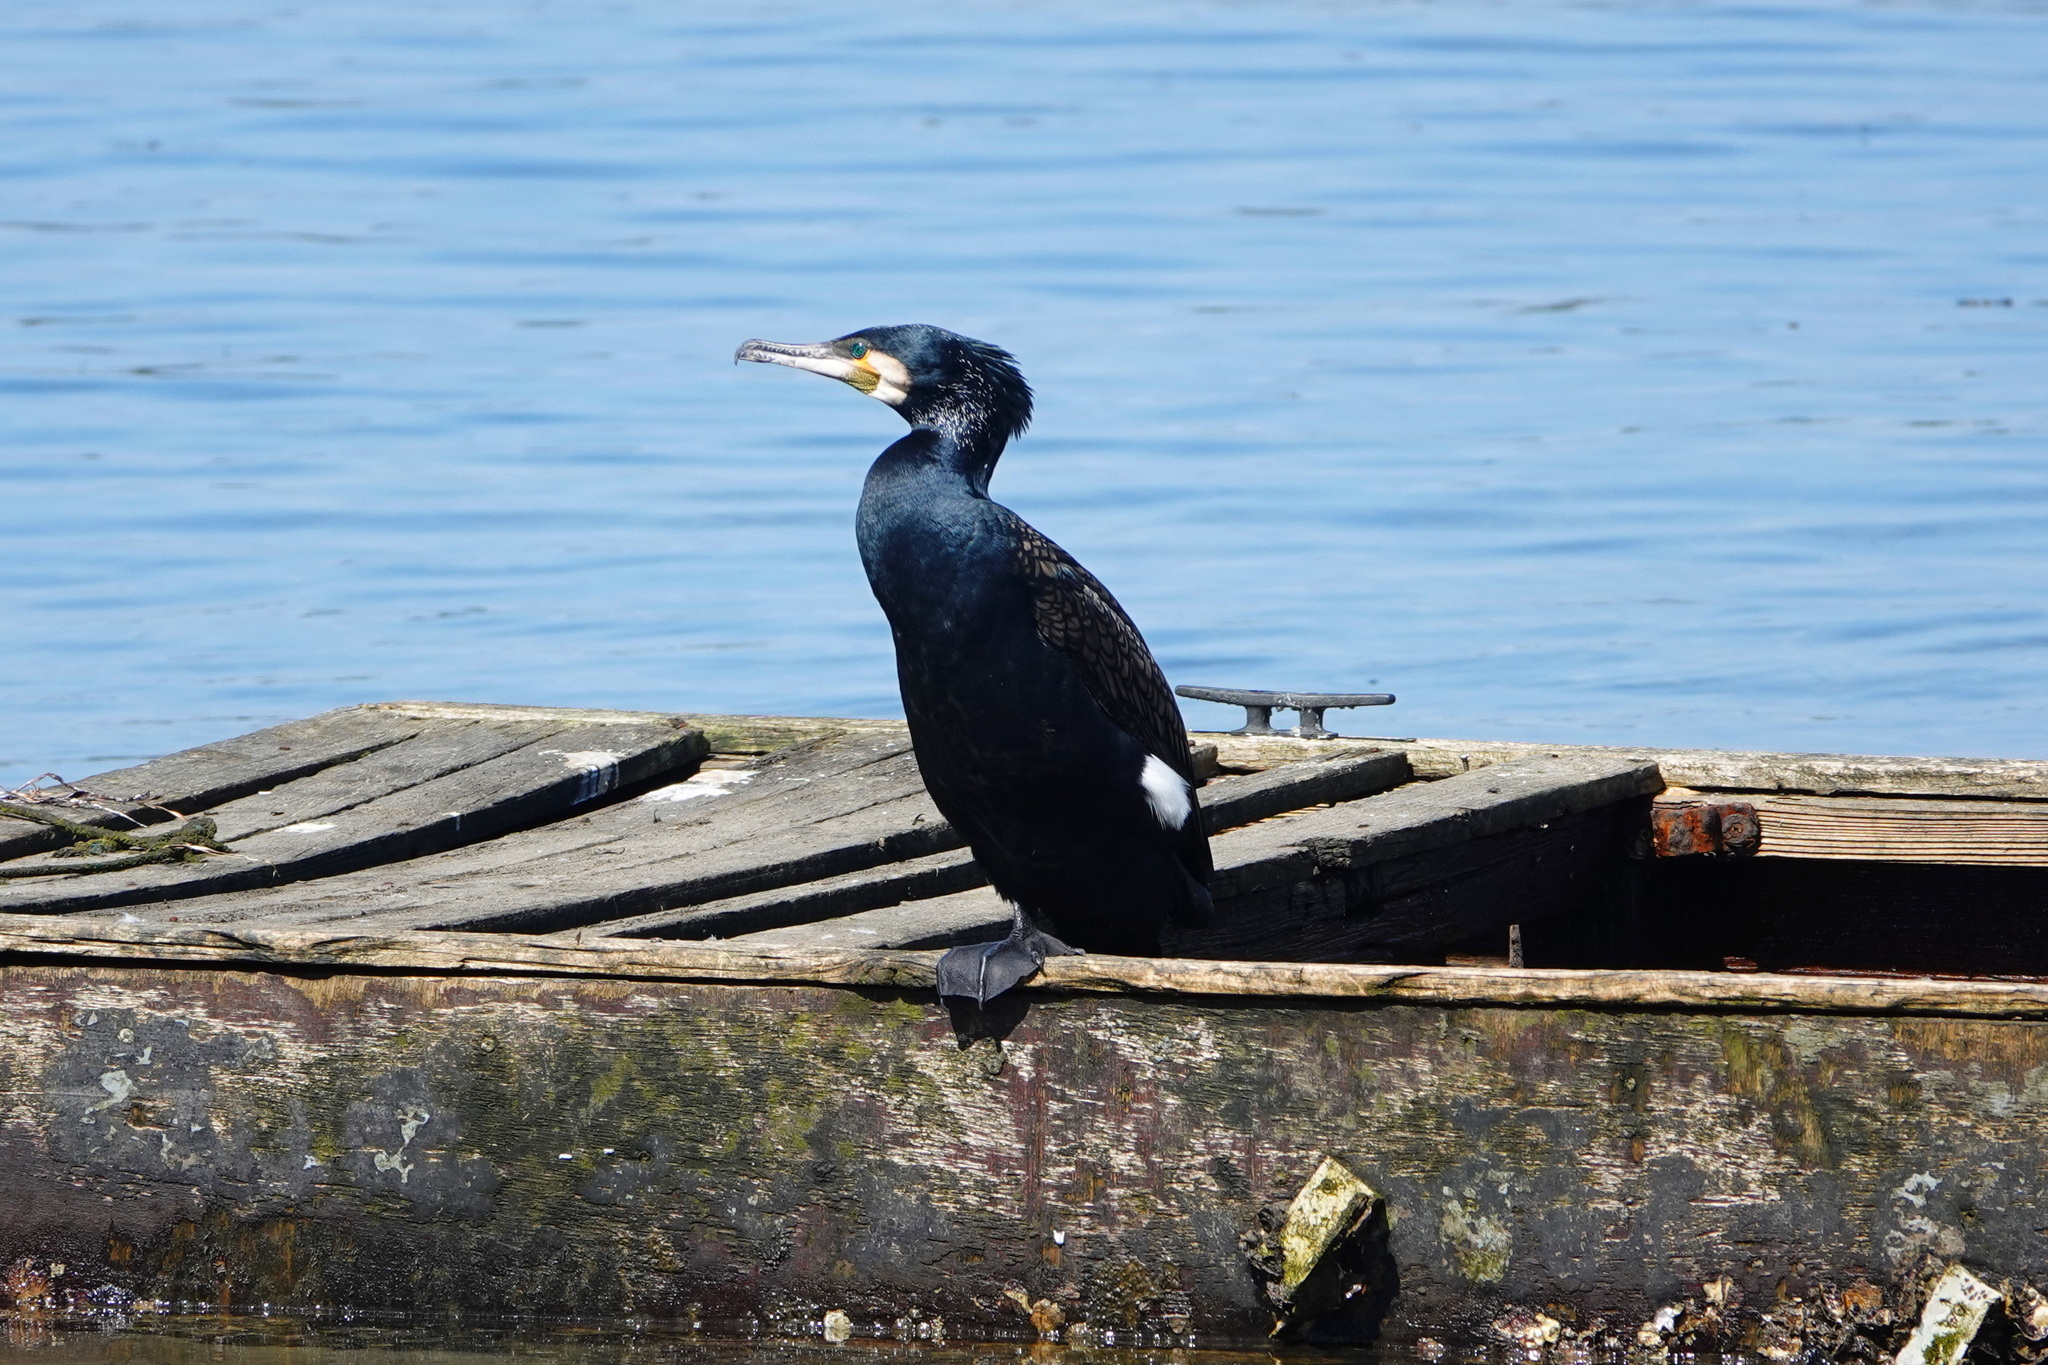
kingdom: Animalia
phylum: Chordata
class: Aves
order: Suliformes
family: Phalacrocoracidae
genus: Phalacrocorax
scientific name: Phalacrocorax carbo
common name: Great cormorant
